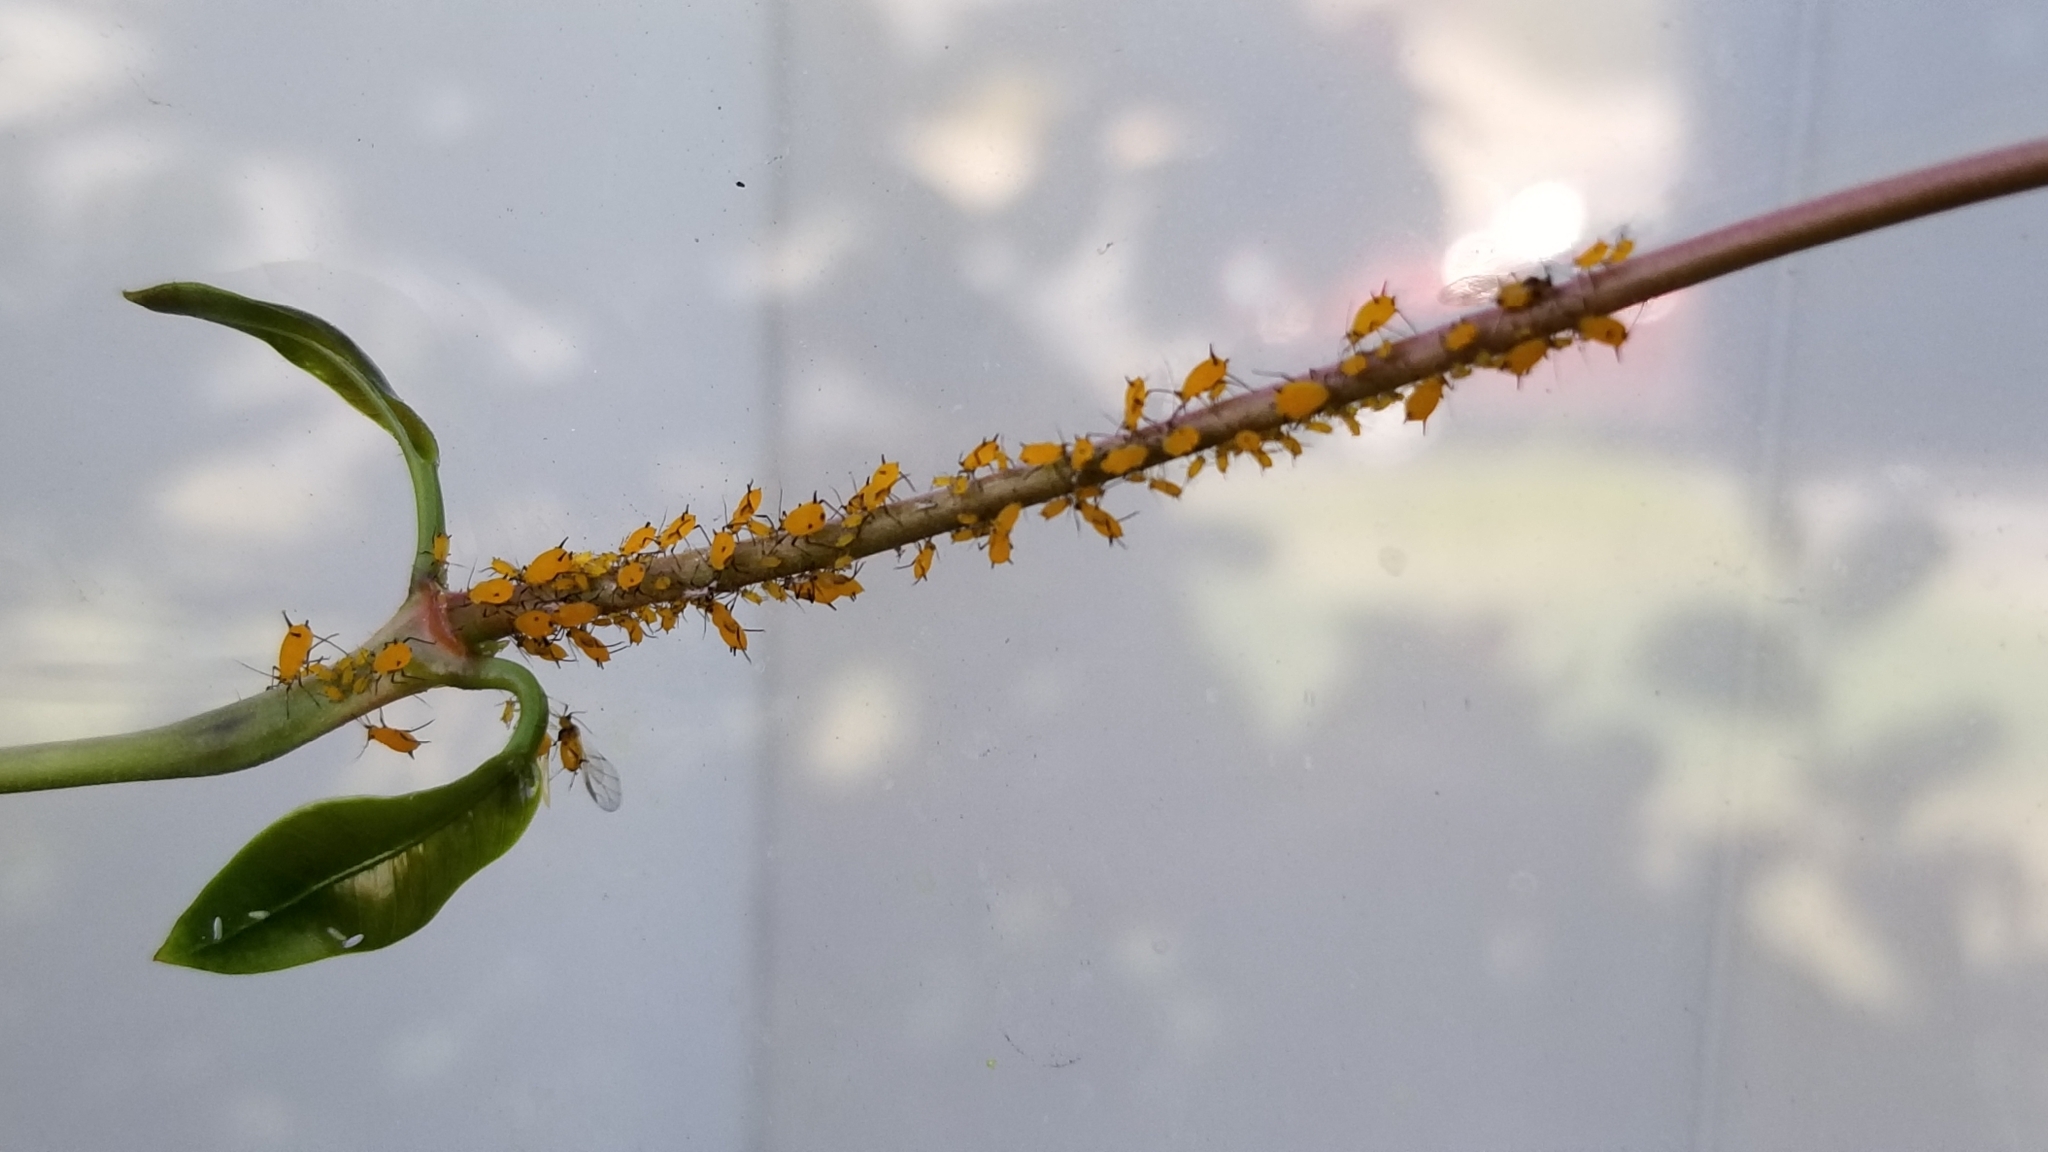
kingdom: Animalia
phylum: Arthropoda
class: Insecta
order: Hemiptera
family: Aphididae
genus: Aphis
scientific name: Aphis nerii
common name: Oleander aphid
